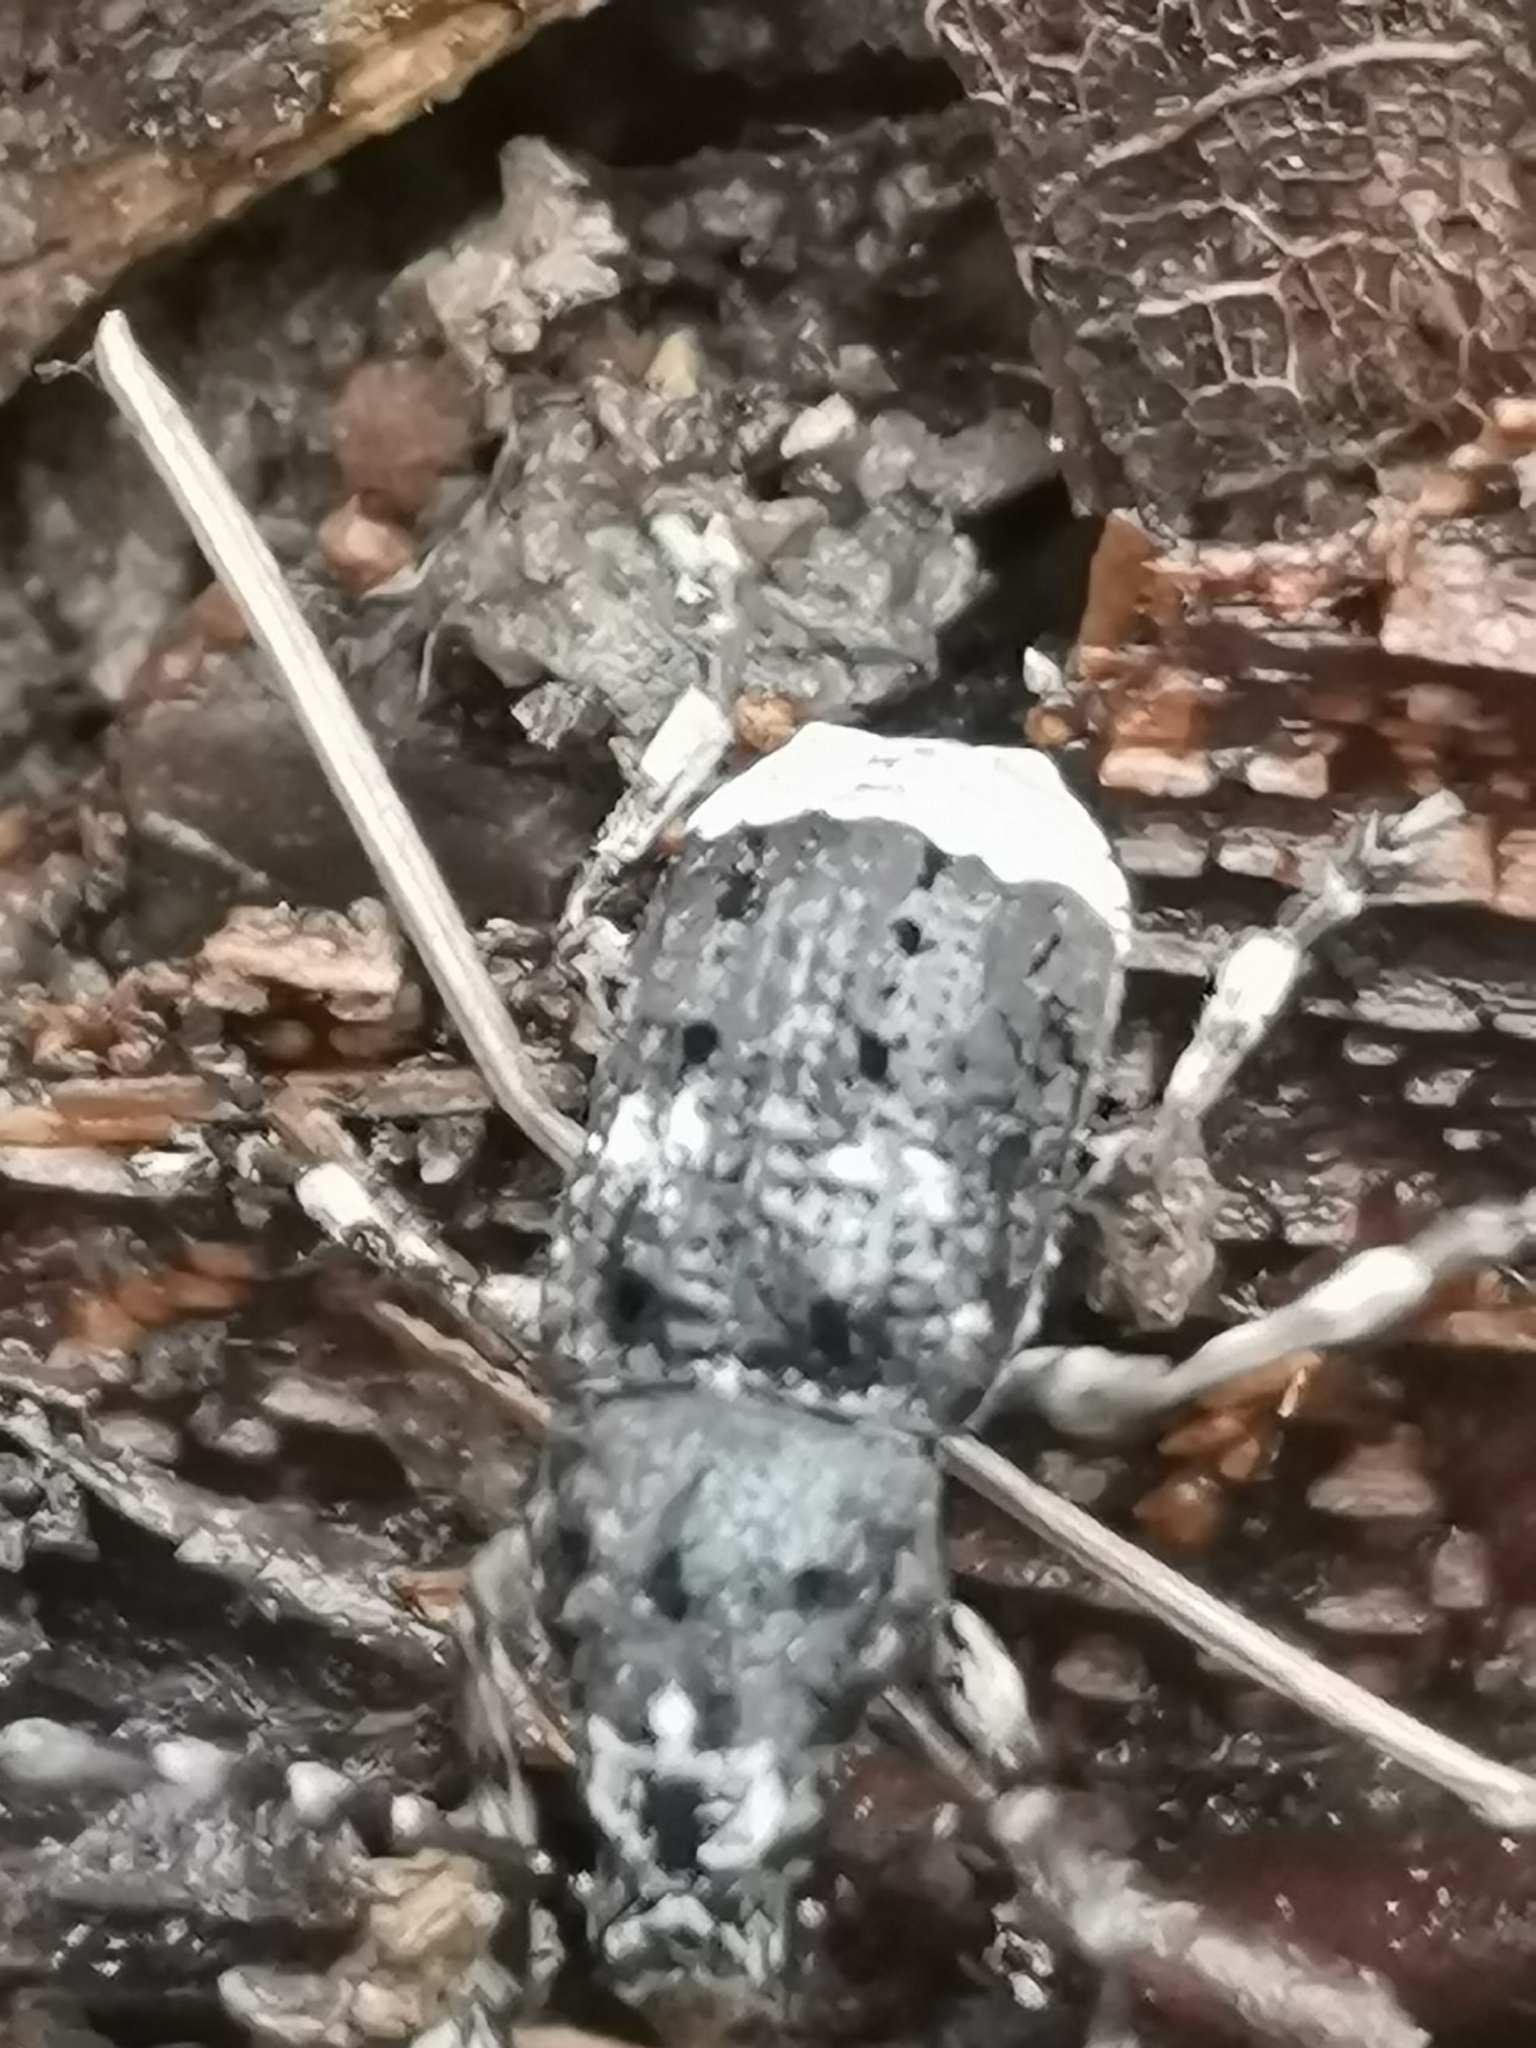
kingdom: Animalia
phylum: Arthropoda
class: Insecta
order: Coleoptera
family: Anthribidae
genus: Platystomos
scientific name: Platystomos albinus
